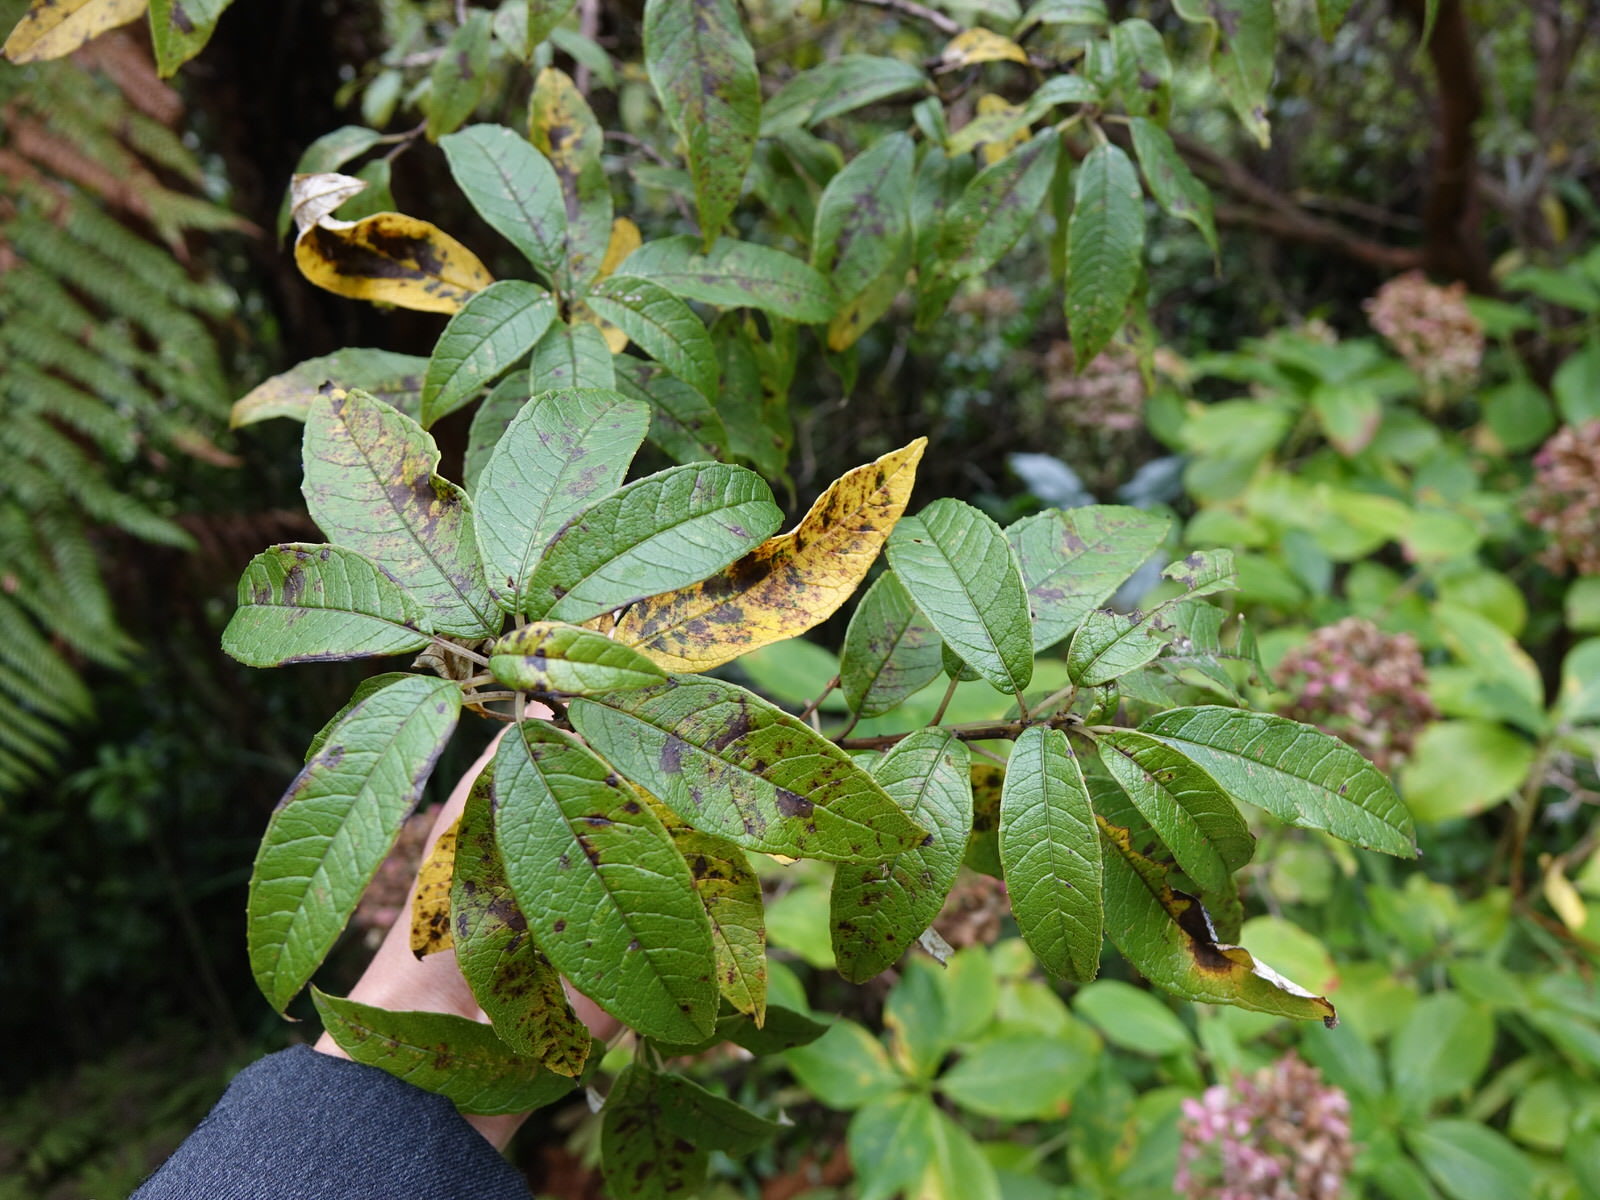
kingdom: Plantae
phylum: Tracheophyta
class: Magnoliopsida
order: Myrtales
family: Onagraceae
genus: Fuchsia
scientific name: Fuchsia excorticata
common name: Tree fuchsia
